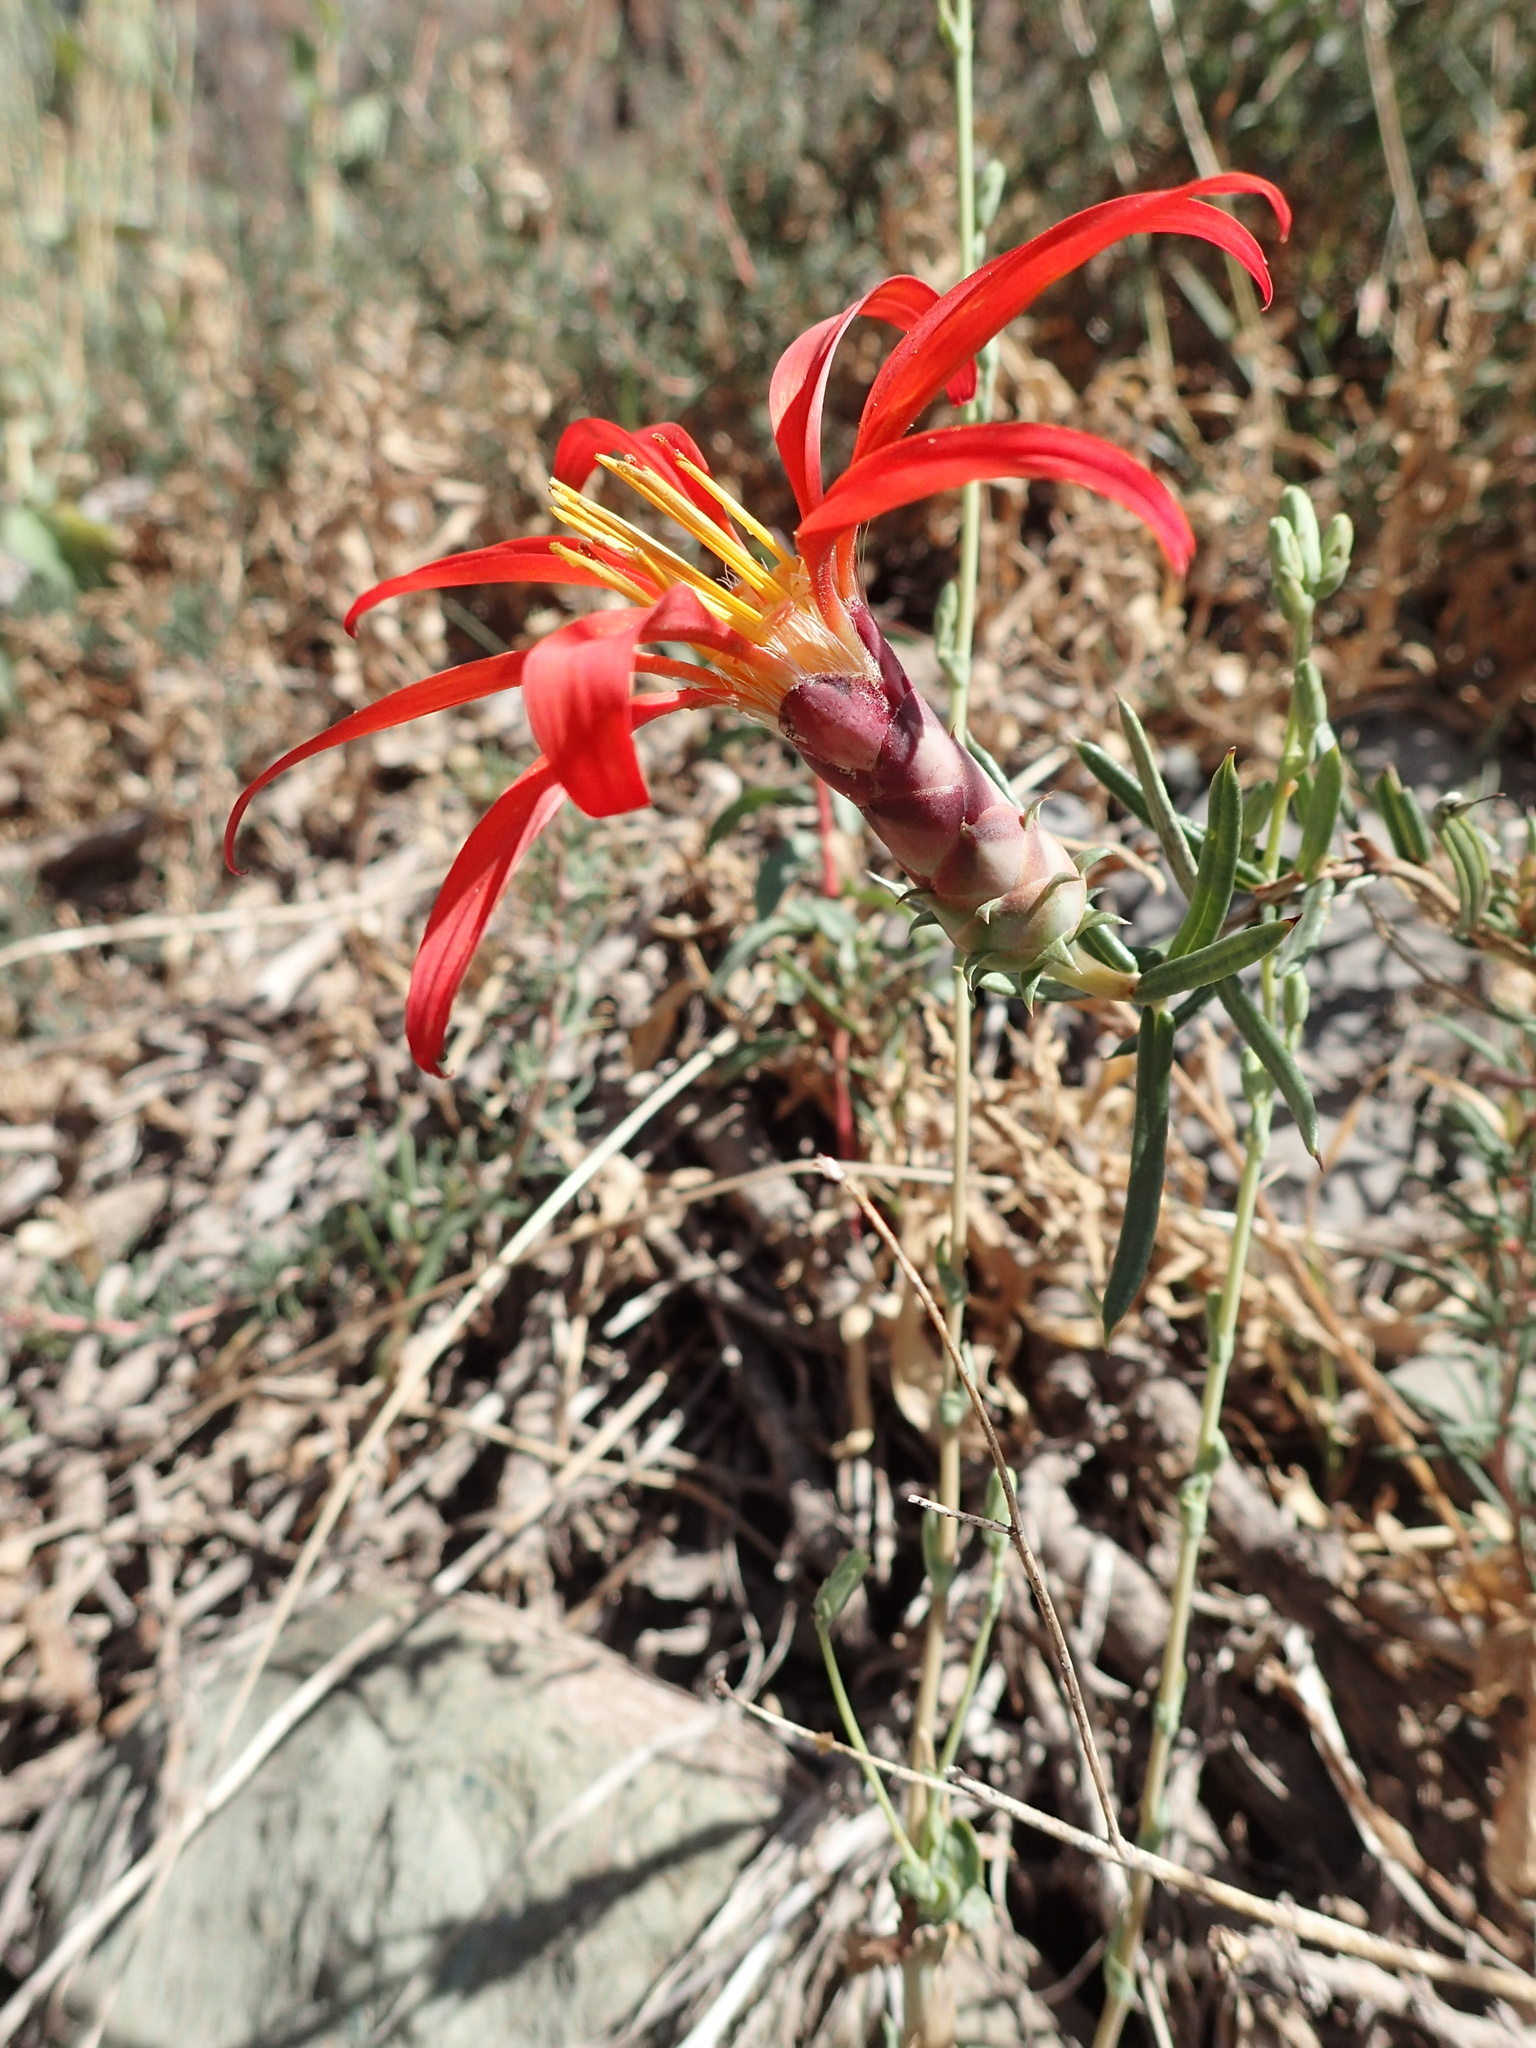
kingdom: Plantae
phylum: Tracheophyta
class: Magnoliopsida
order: Asterales
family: Asteraceae
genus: Mutisia
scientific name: Mutisia subulata
